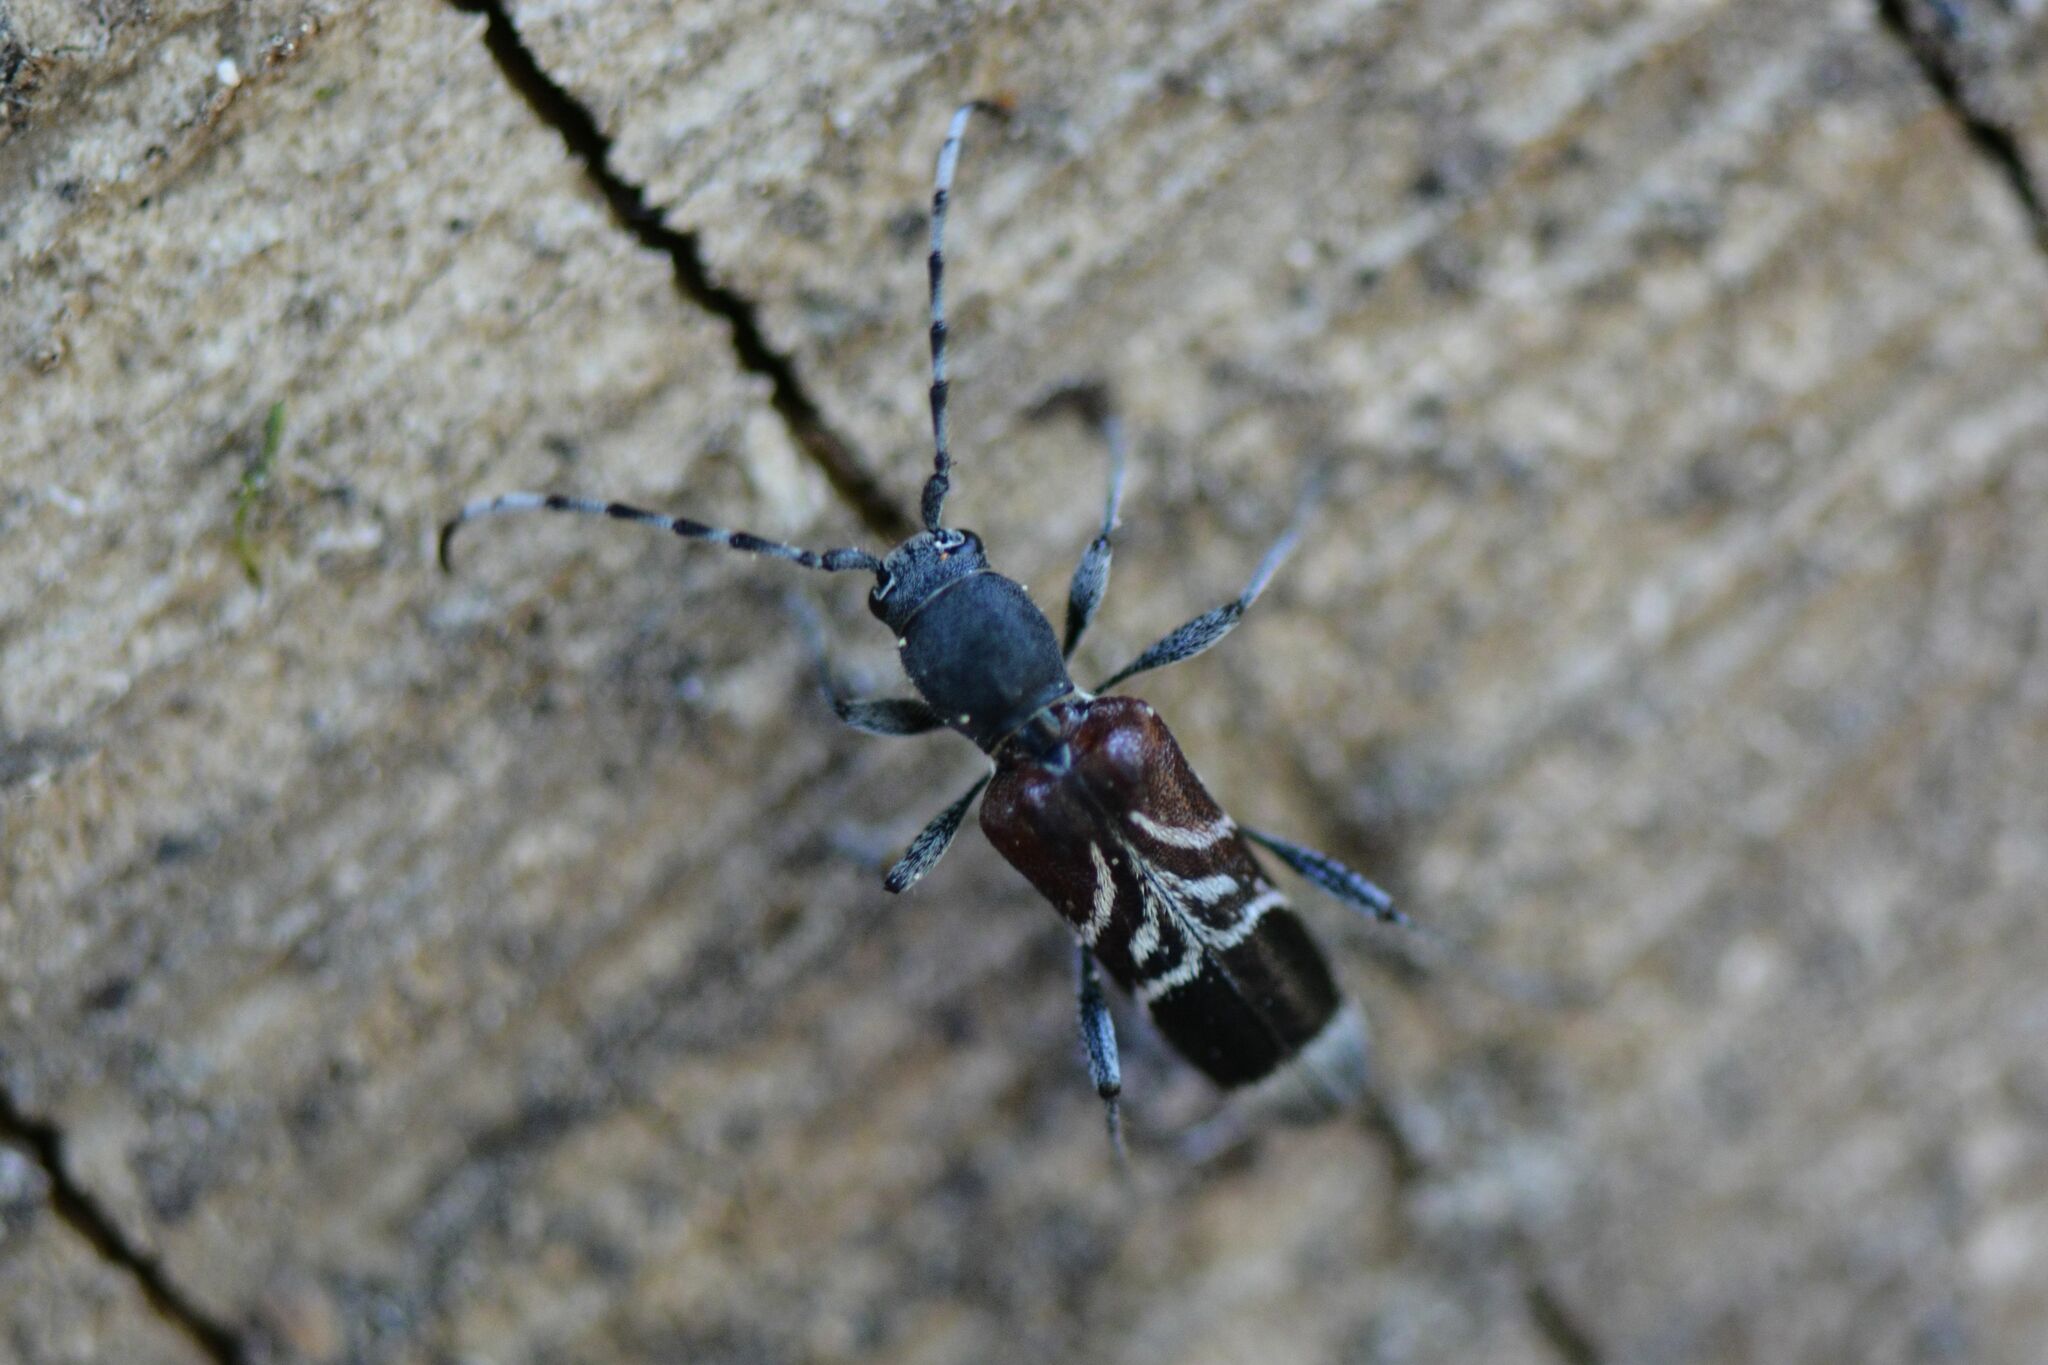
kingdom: Animalia
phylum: Arthropoda
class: Insecta
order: Coleoptera
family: Cerambycidae
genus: Anaglyptus
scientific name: Anaglyptus mysticus
